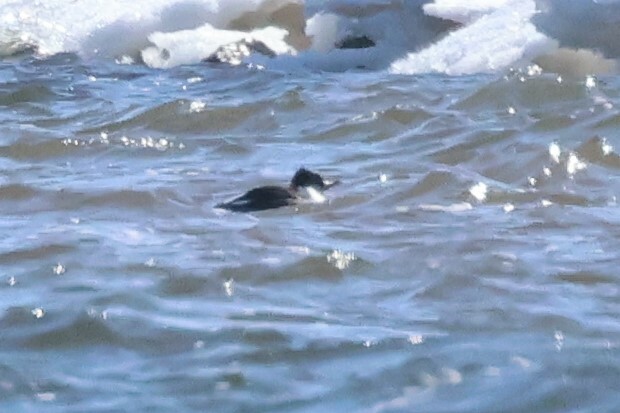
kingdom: Animalia
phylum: Chordata
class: Aves
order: Anseriformes
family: Anatidae
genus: Oxyura
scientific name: Oxyura jamaicensis
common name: Ruddy duck
